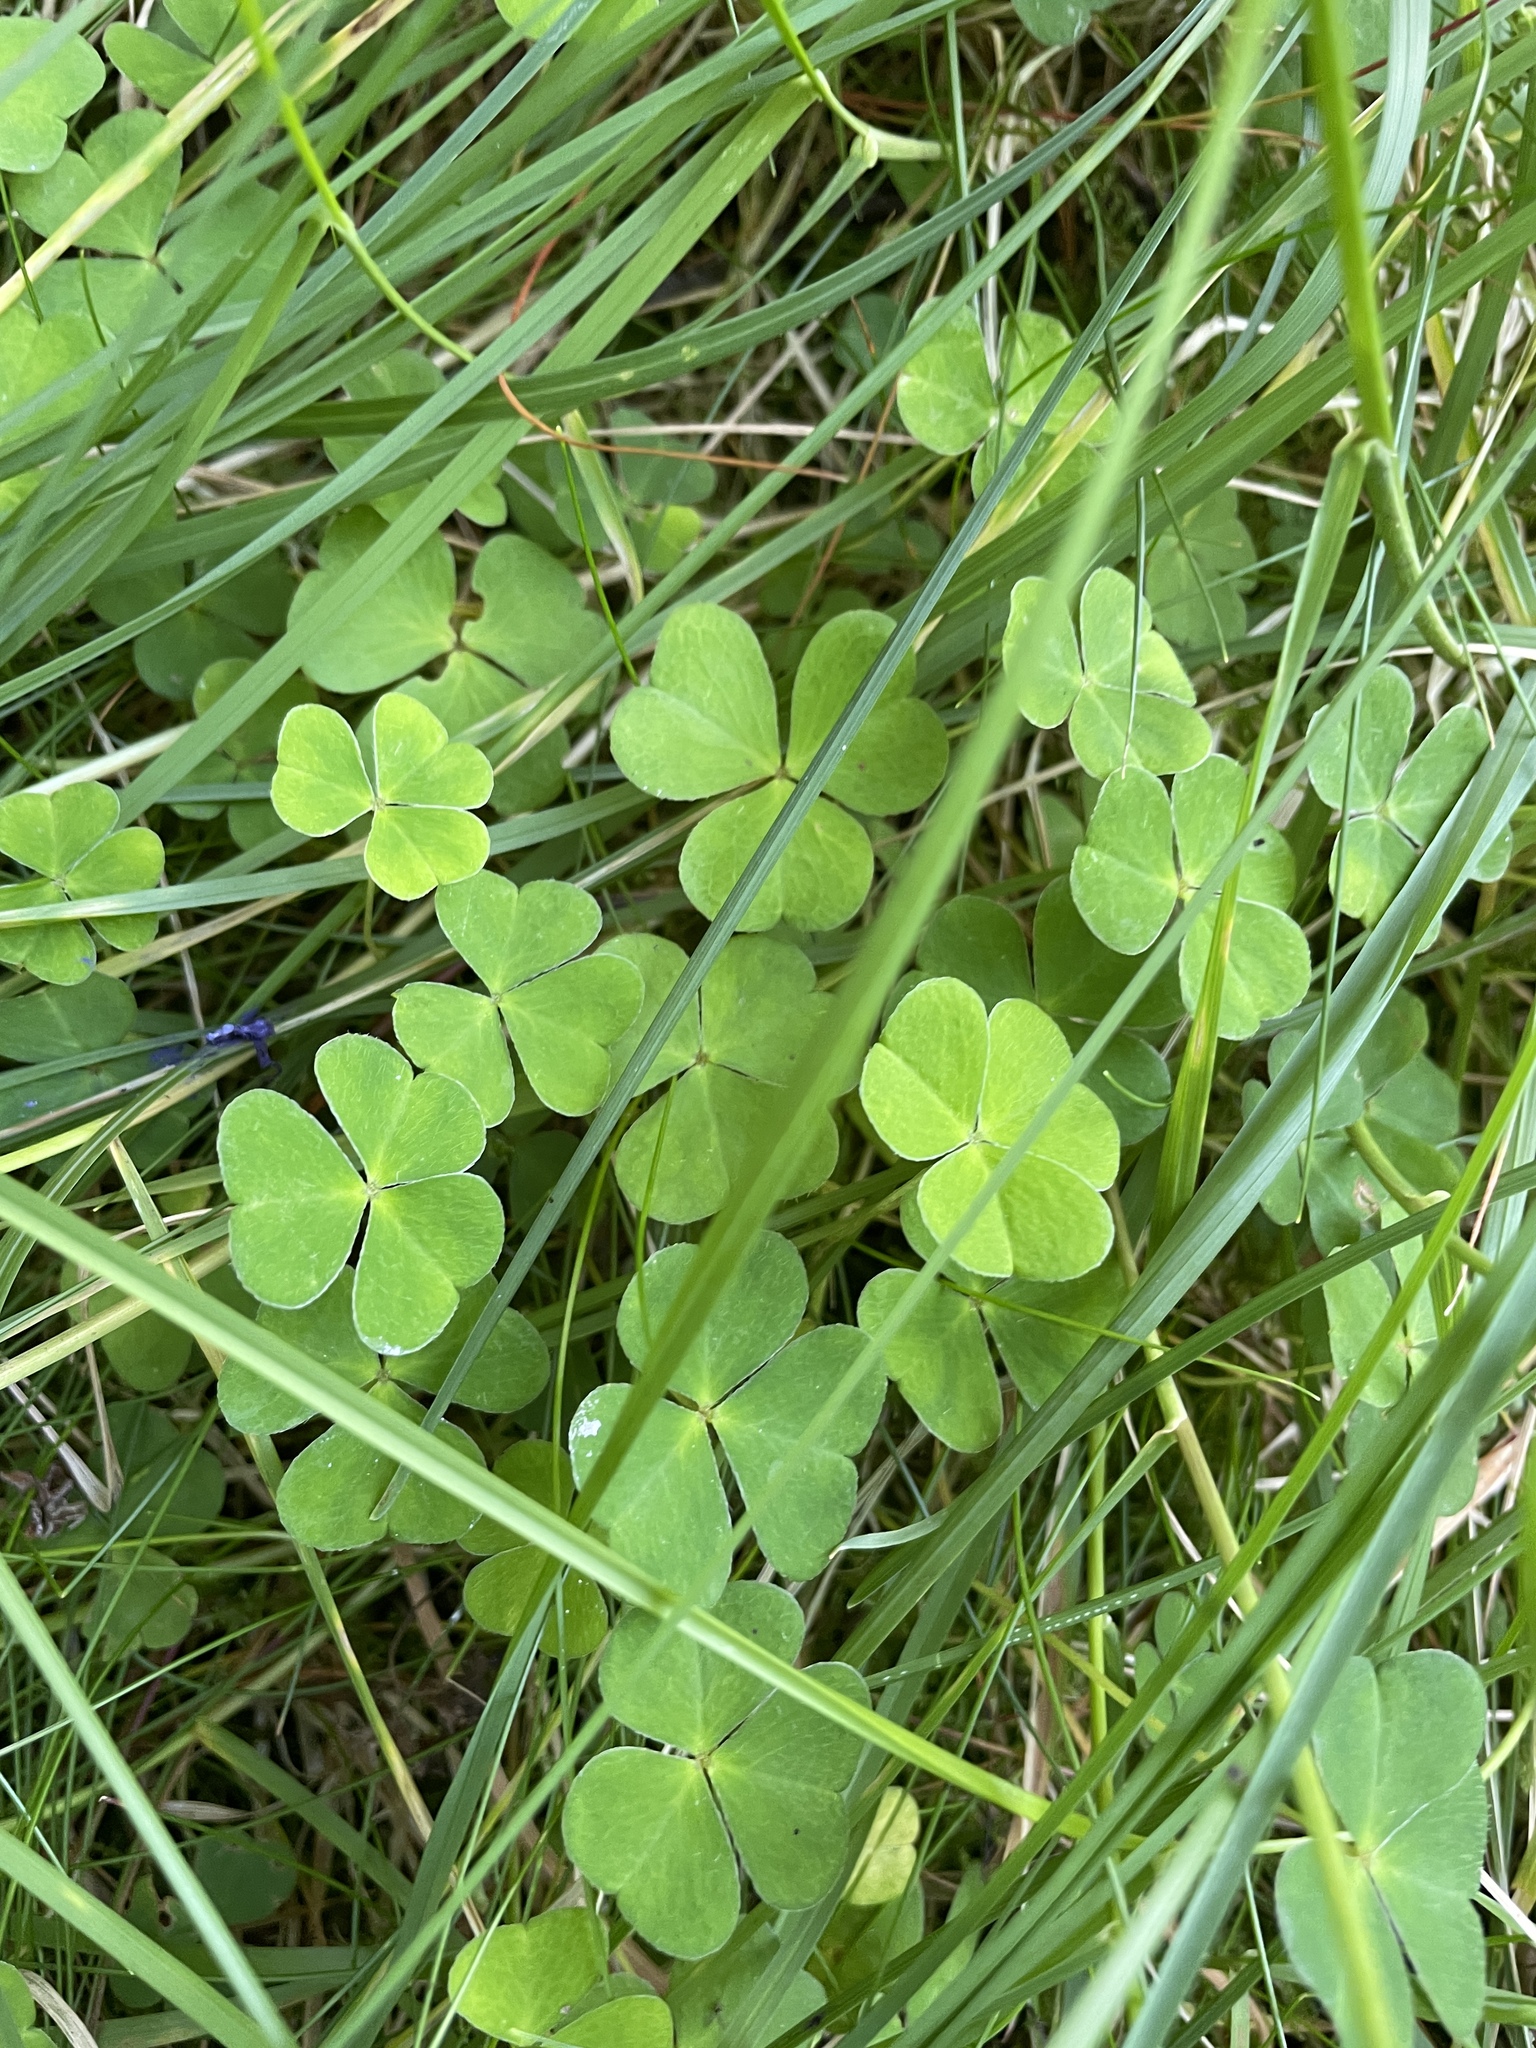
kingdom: Plantae
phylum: Tracheophyta
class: Magnoliopsida
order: Oxalidales
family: Oxalidaceae
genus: Oxalis
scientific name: Oxalis acetosella
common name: Wood-sorrel
